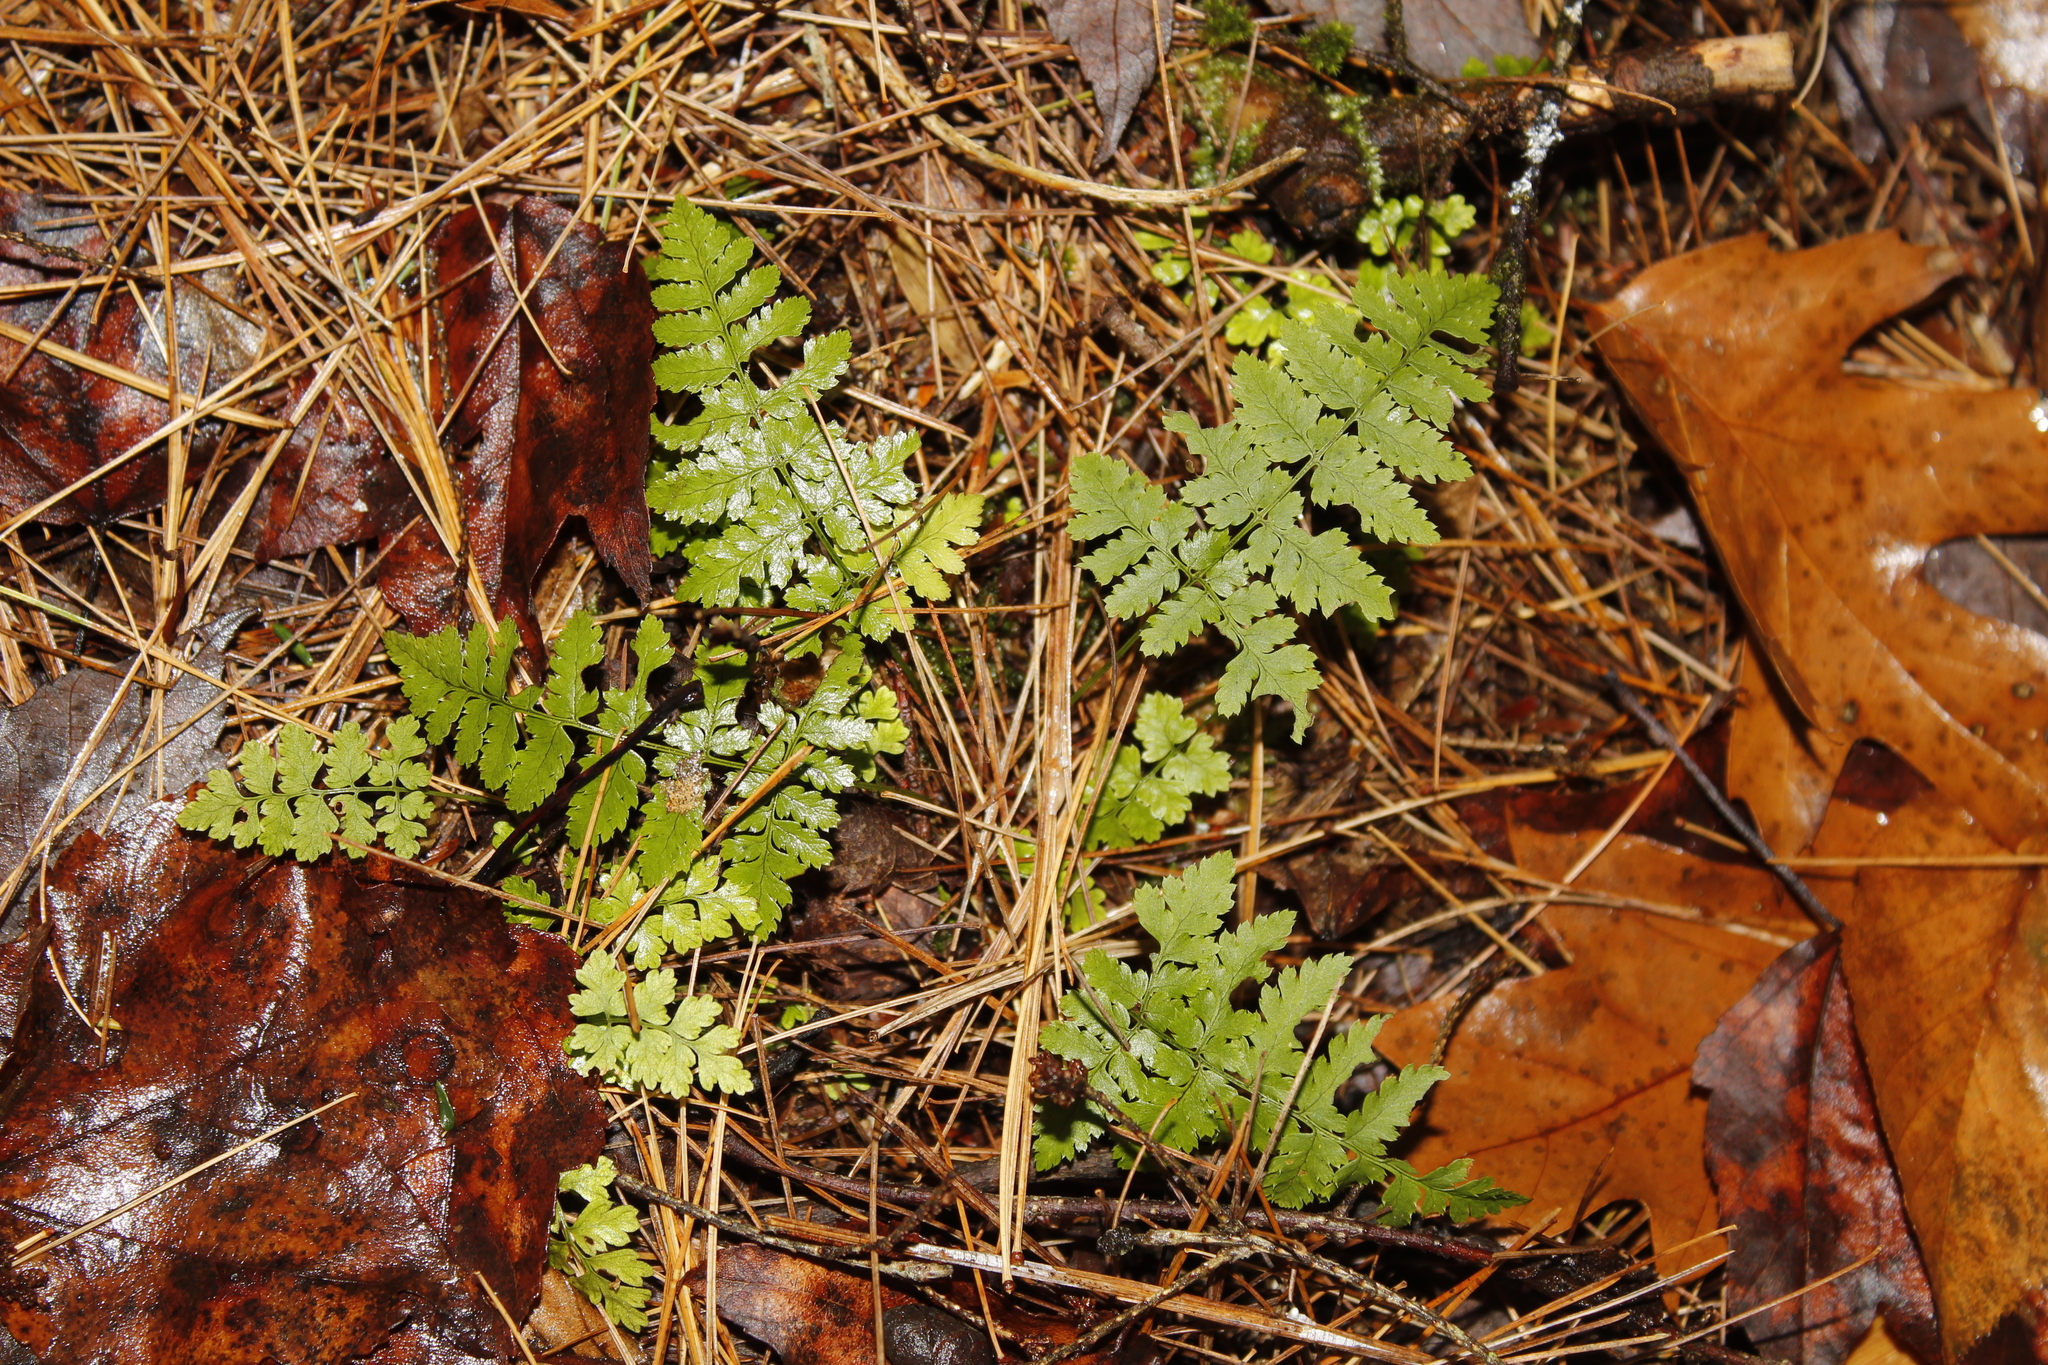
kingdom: Plantae
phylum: Tracheophyta
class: Polypodiopsida
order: Polypodiales
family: Dryopteridaceae
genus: Dryopteris
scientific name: Dryopteris intermedia
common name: Evergreen wood fern
